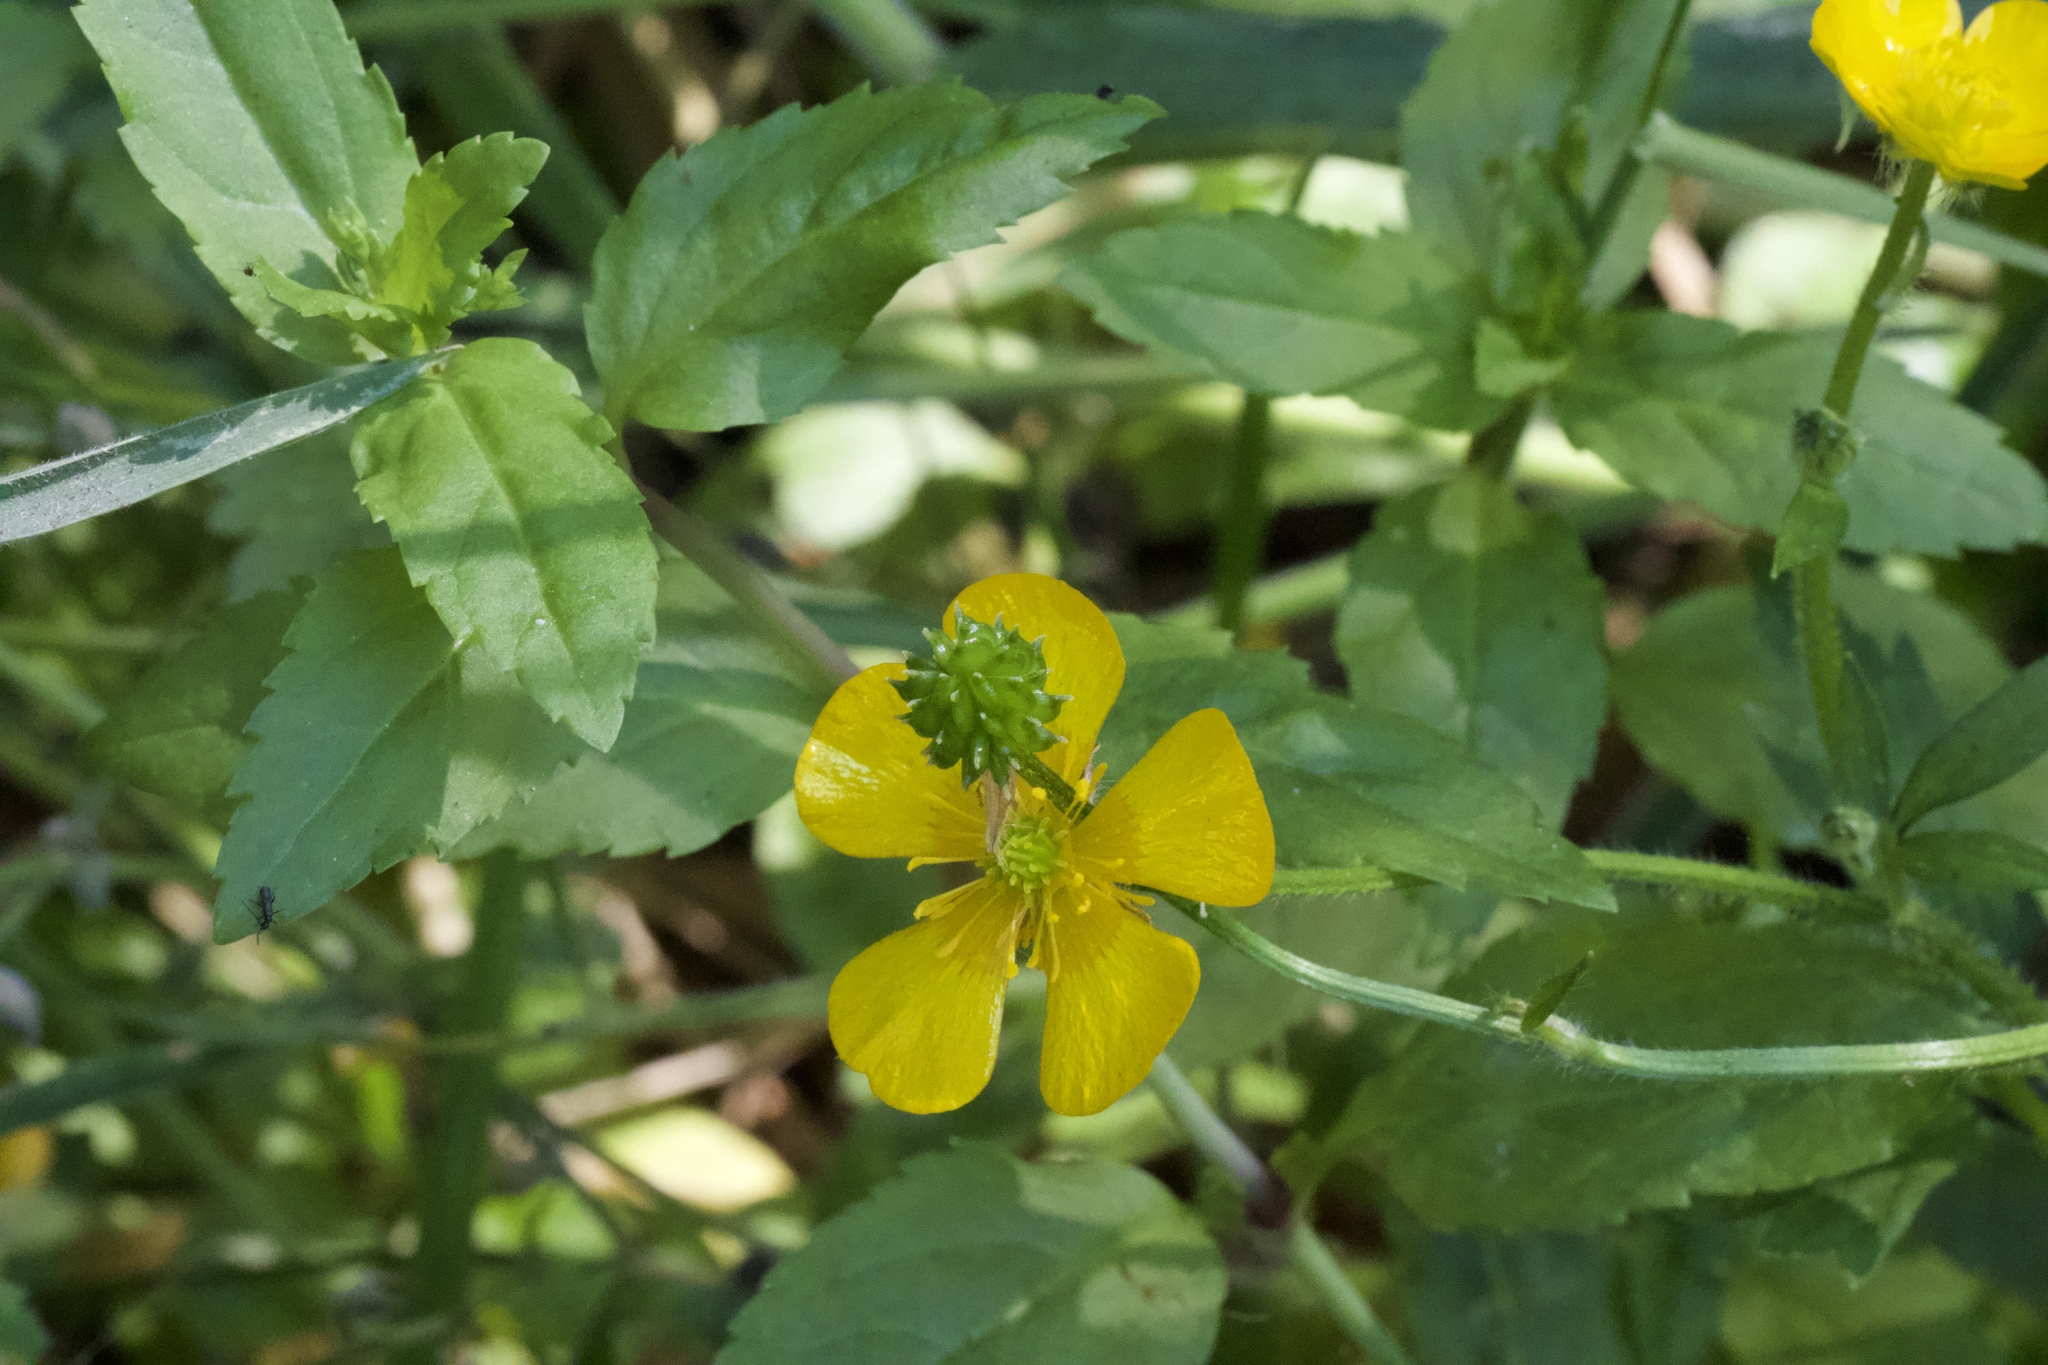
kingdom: Plantae
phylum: Tracheophyta
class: Magnoliopsida
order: Ranunculales
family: Ranunculaceae
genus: Ranunculus
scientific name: Ranunculus repens
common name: Creeping buttercup
